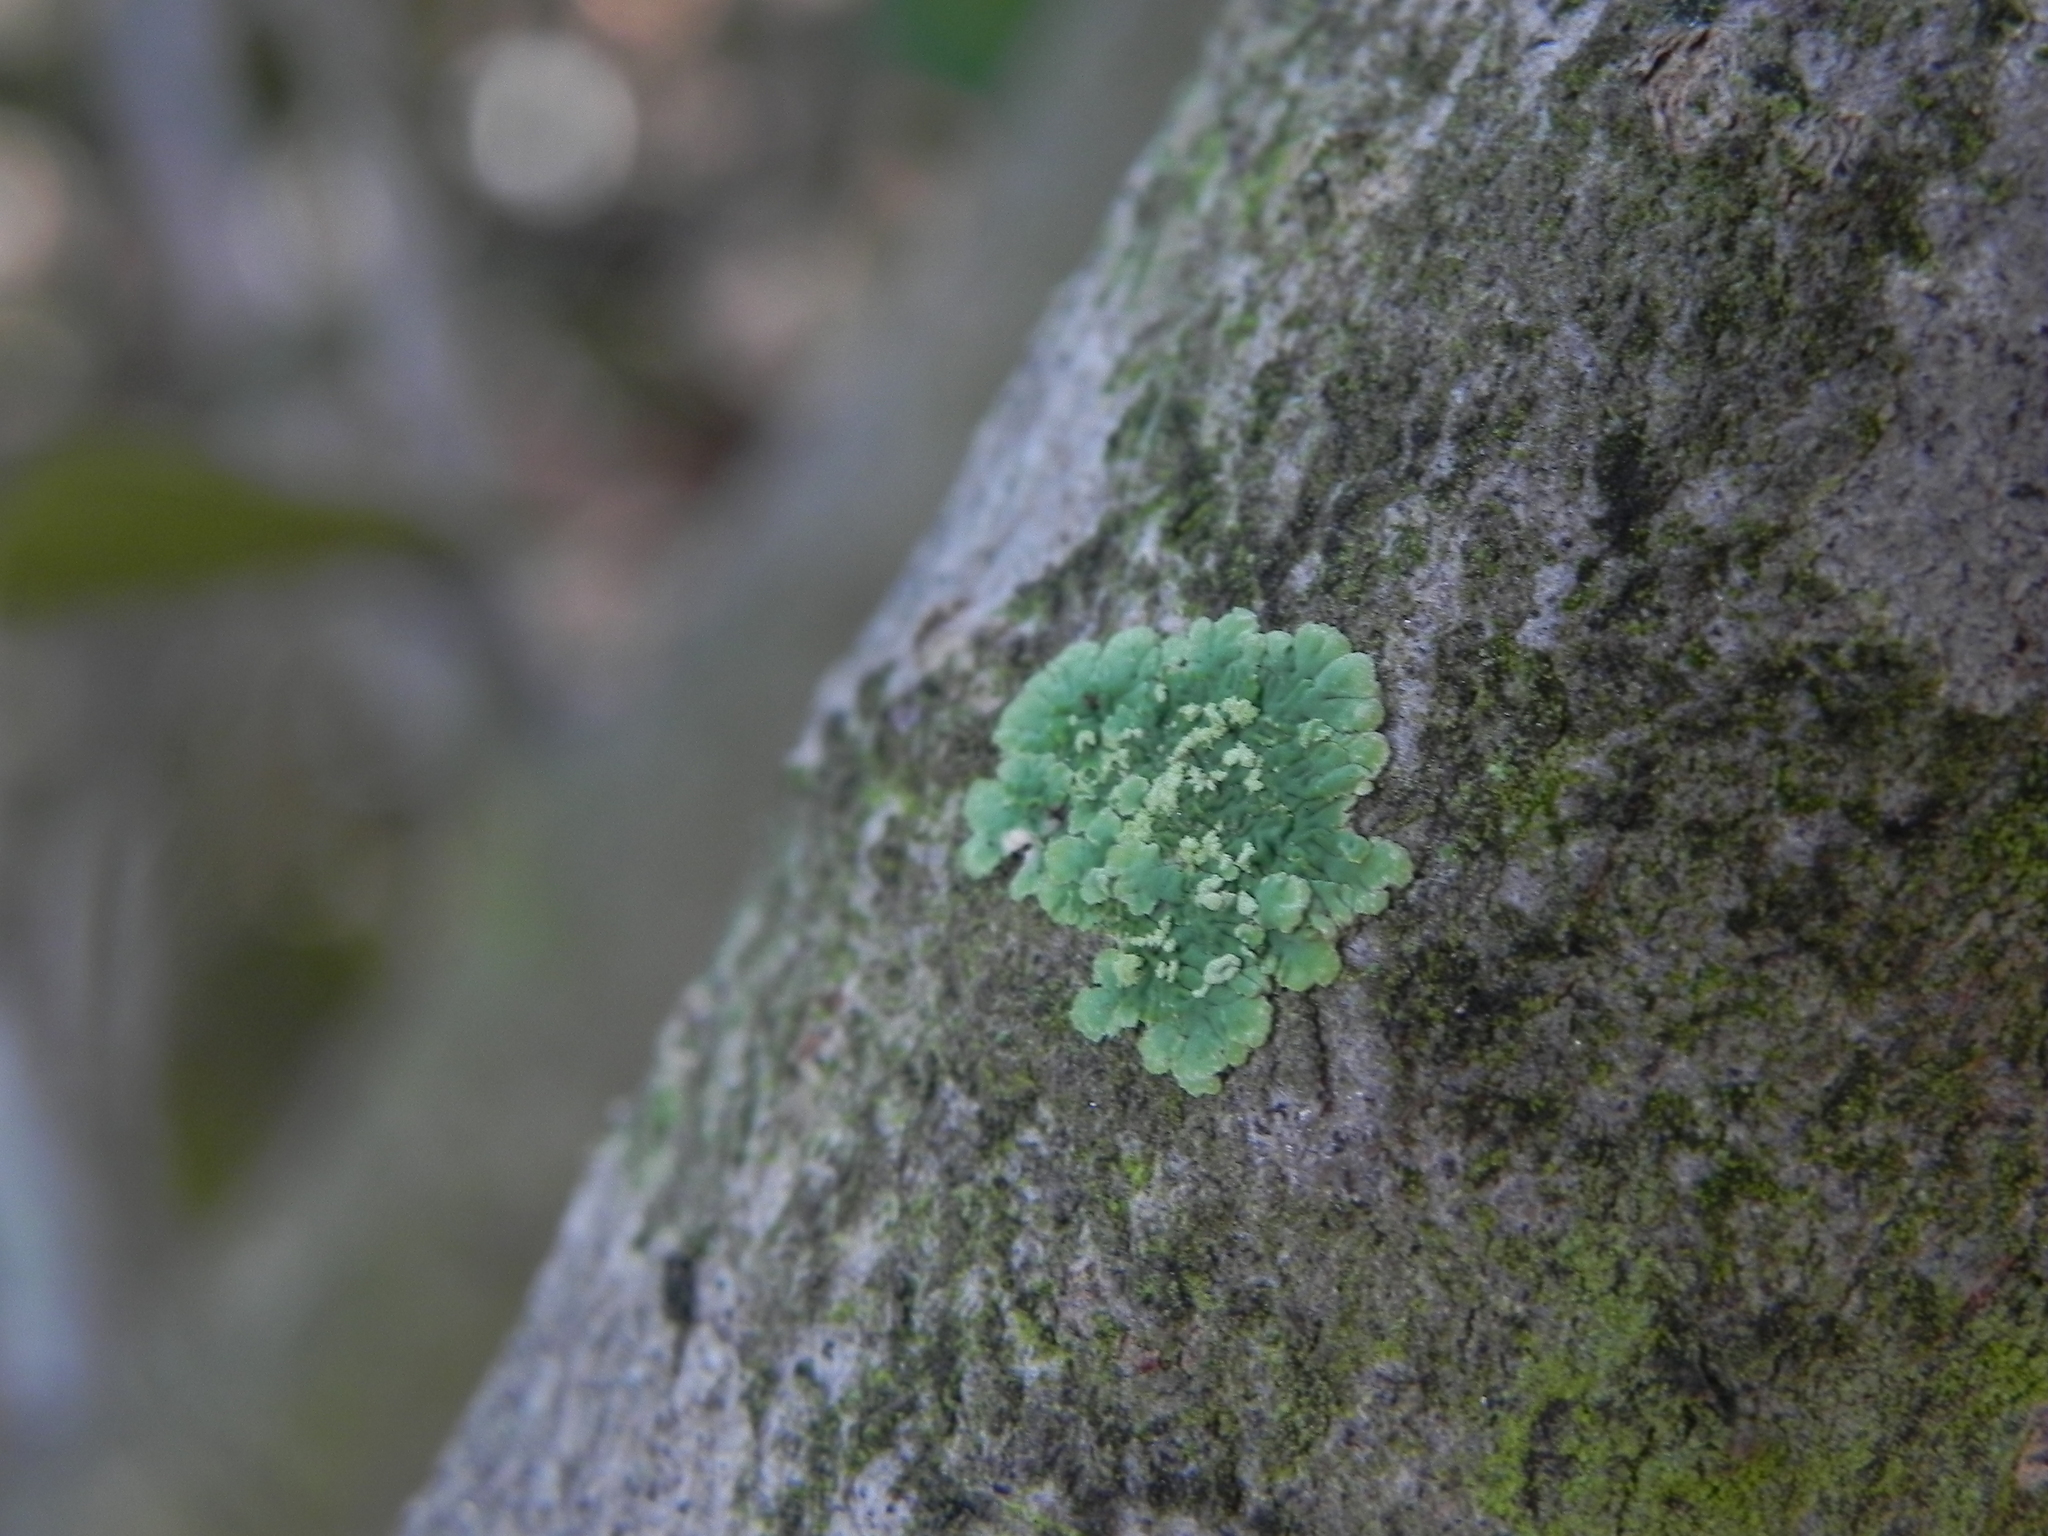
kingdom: Fungi
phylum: Ascomycota
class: Lecanoromycetes
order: Caliciales
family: Caliciaceae
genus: Diploicia
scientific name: Diploicia canescens
